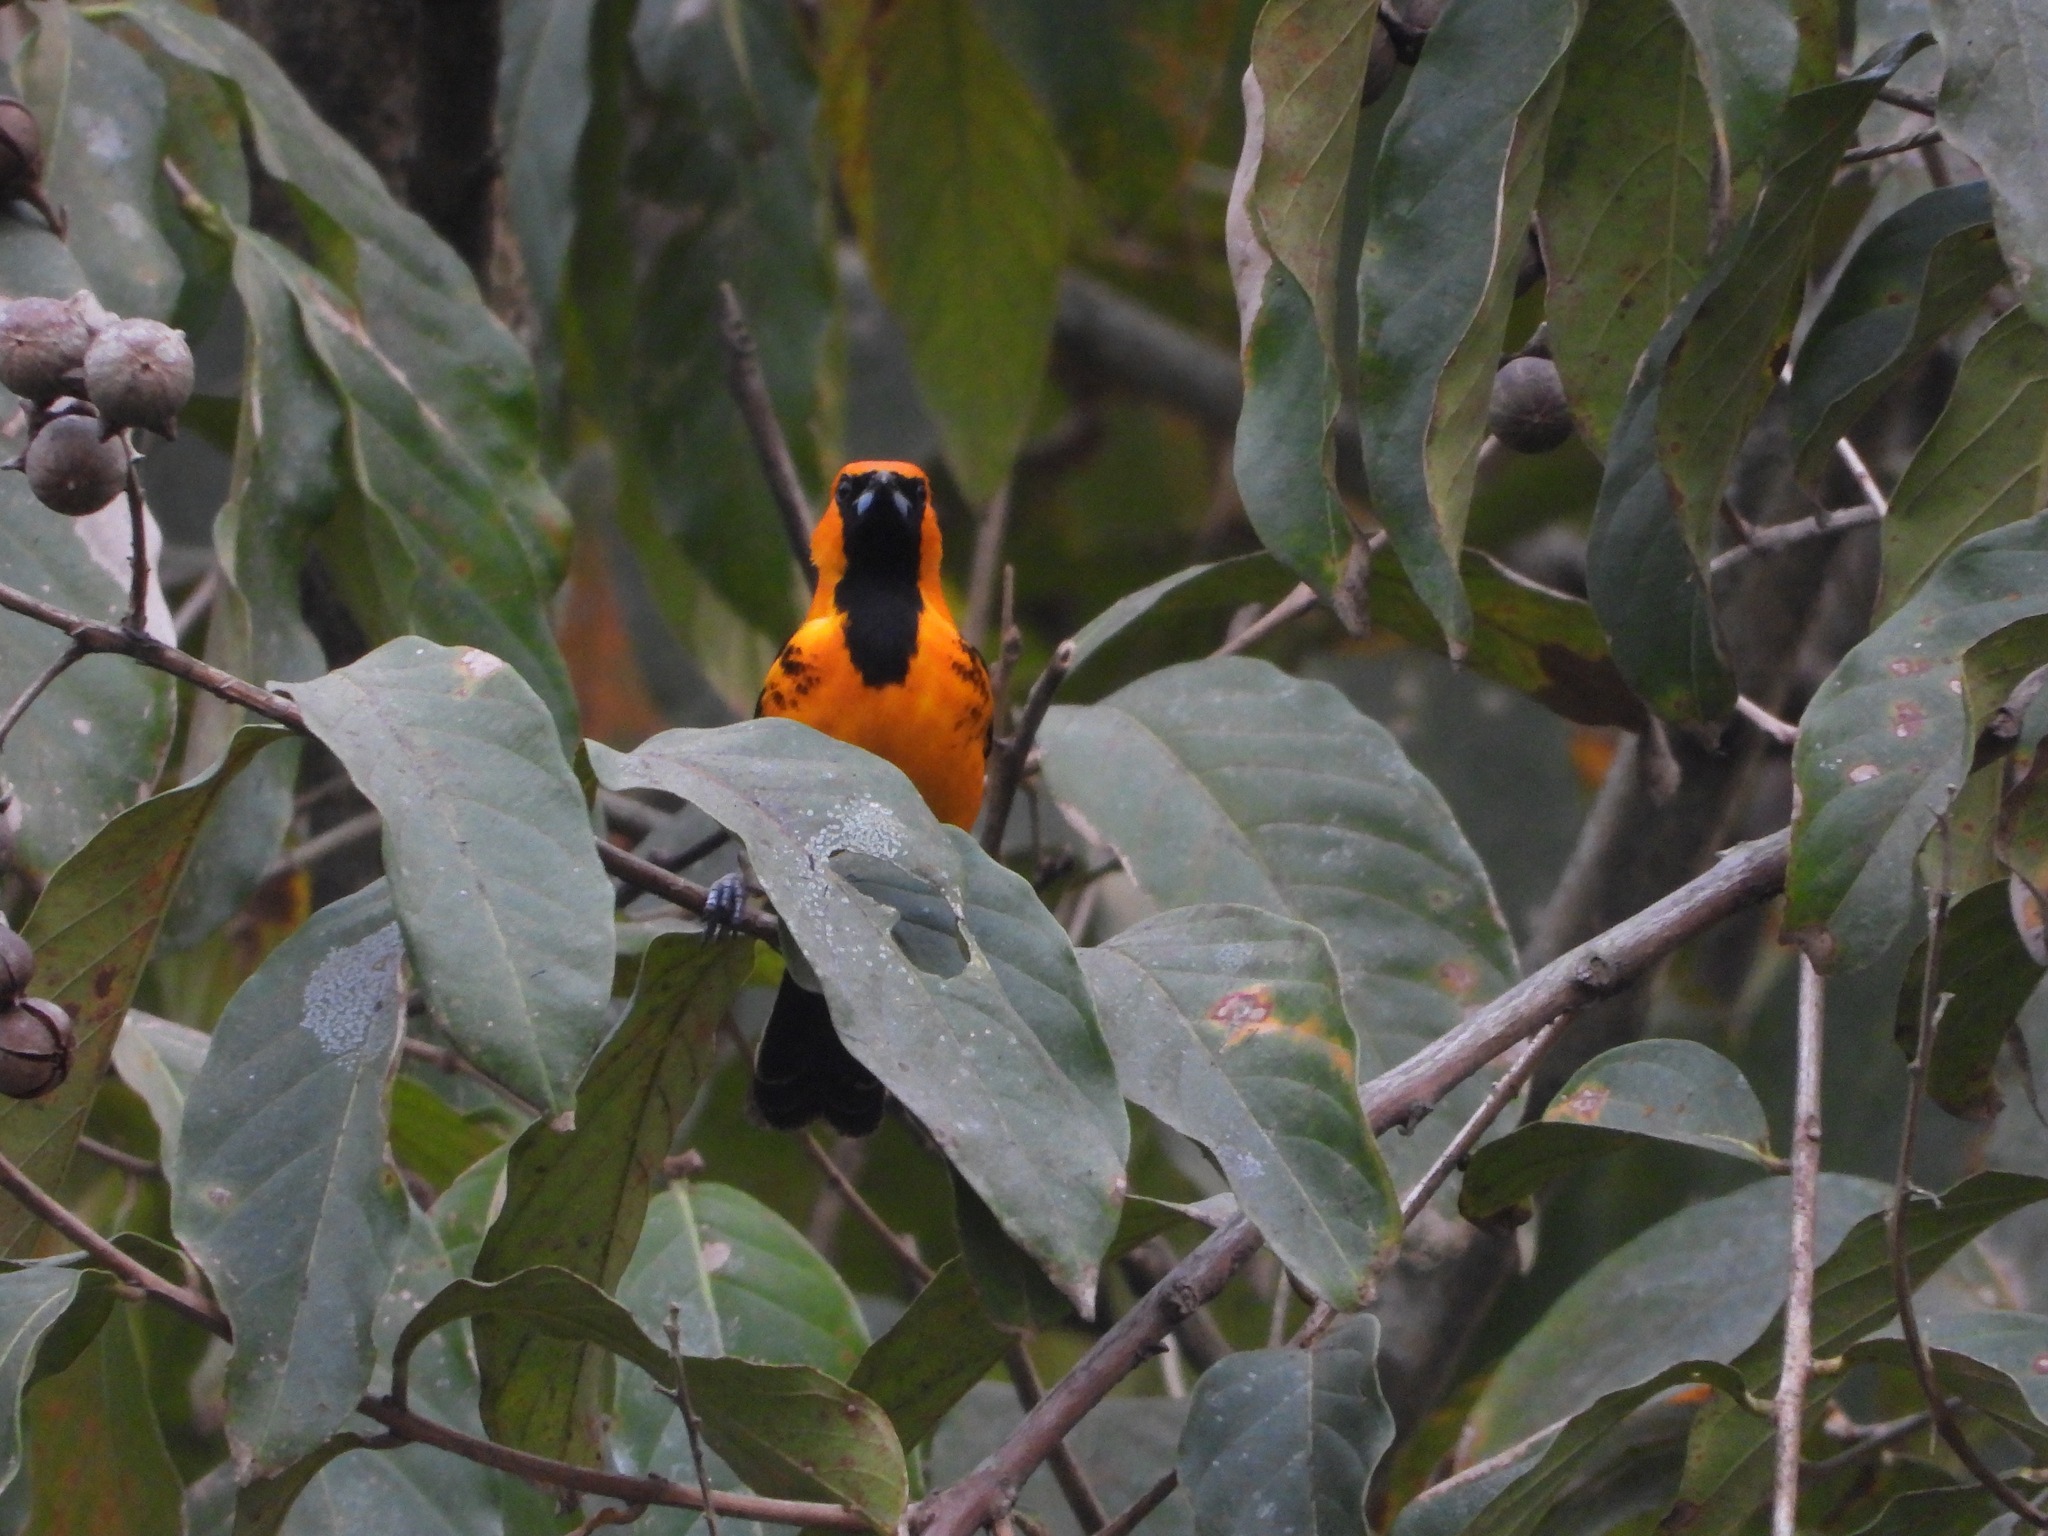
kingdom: Animalia
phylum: Chordata
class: Aves
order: Passeriformes
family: Icteridae
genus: Icterus
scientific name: Icterus pectoralis
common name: Spot-breasted oriole
